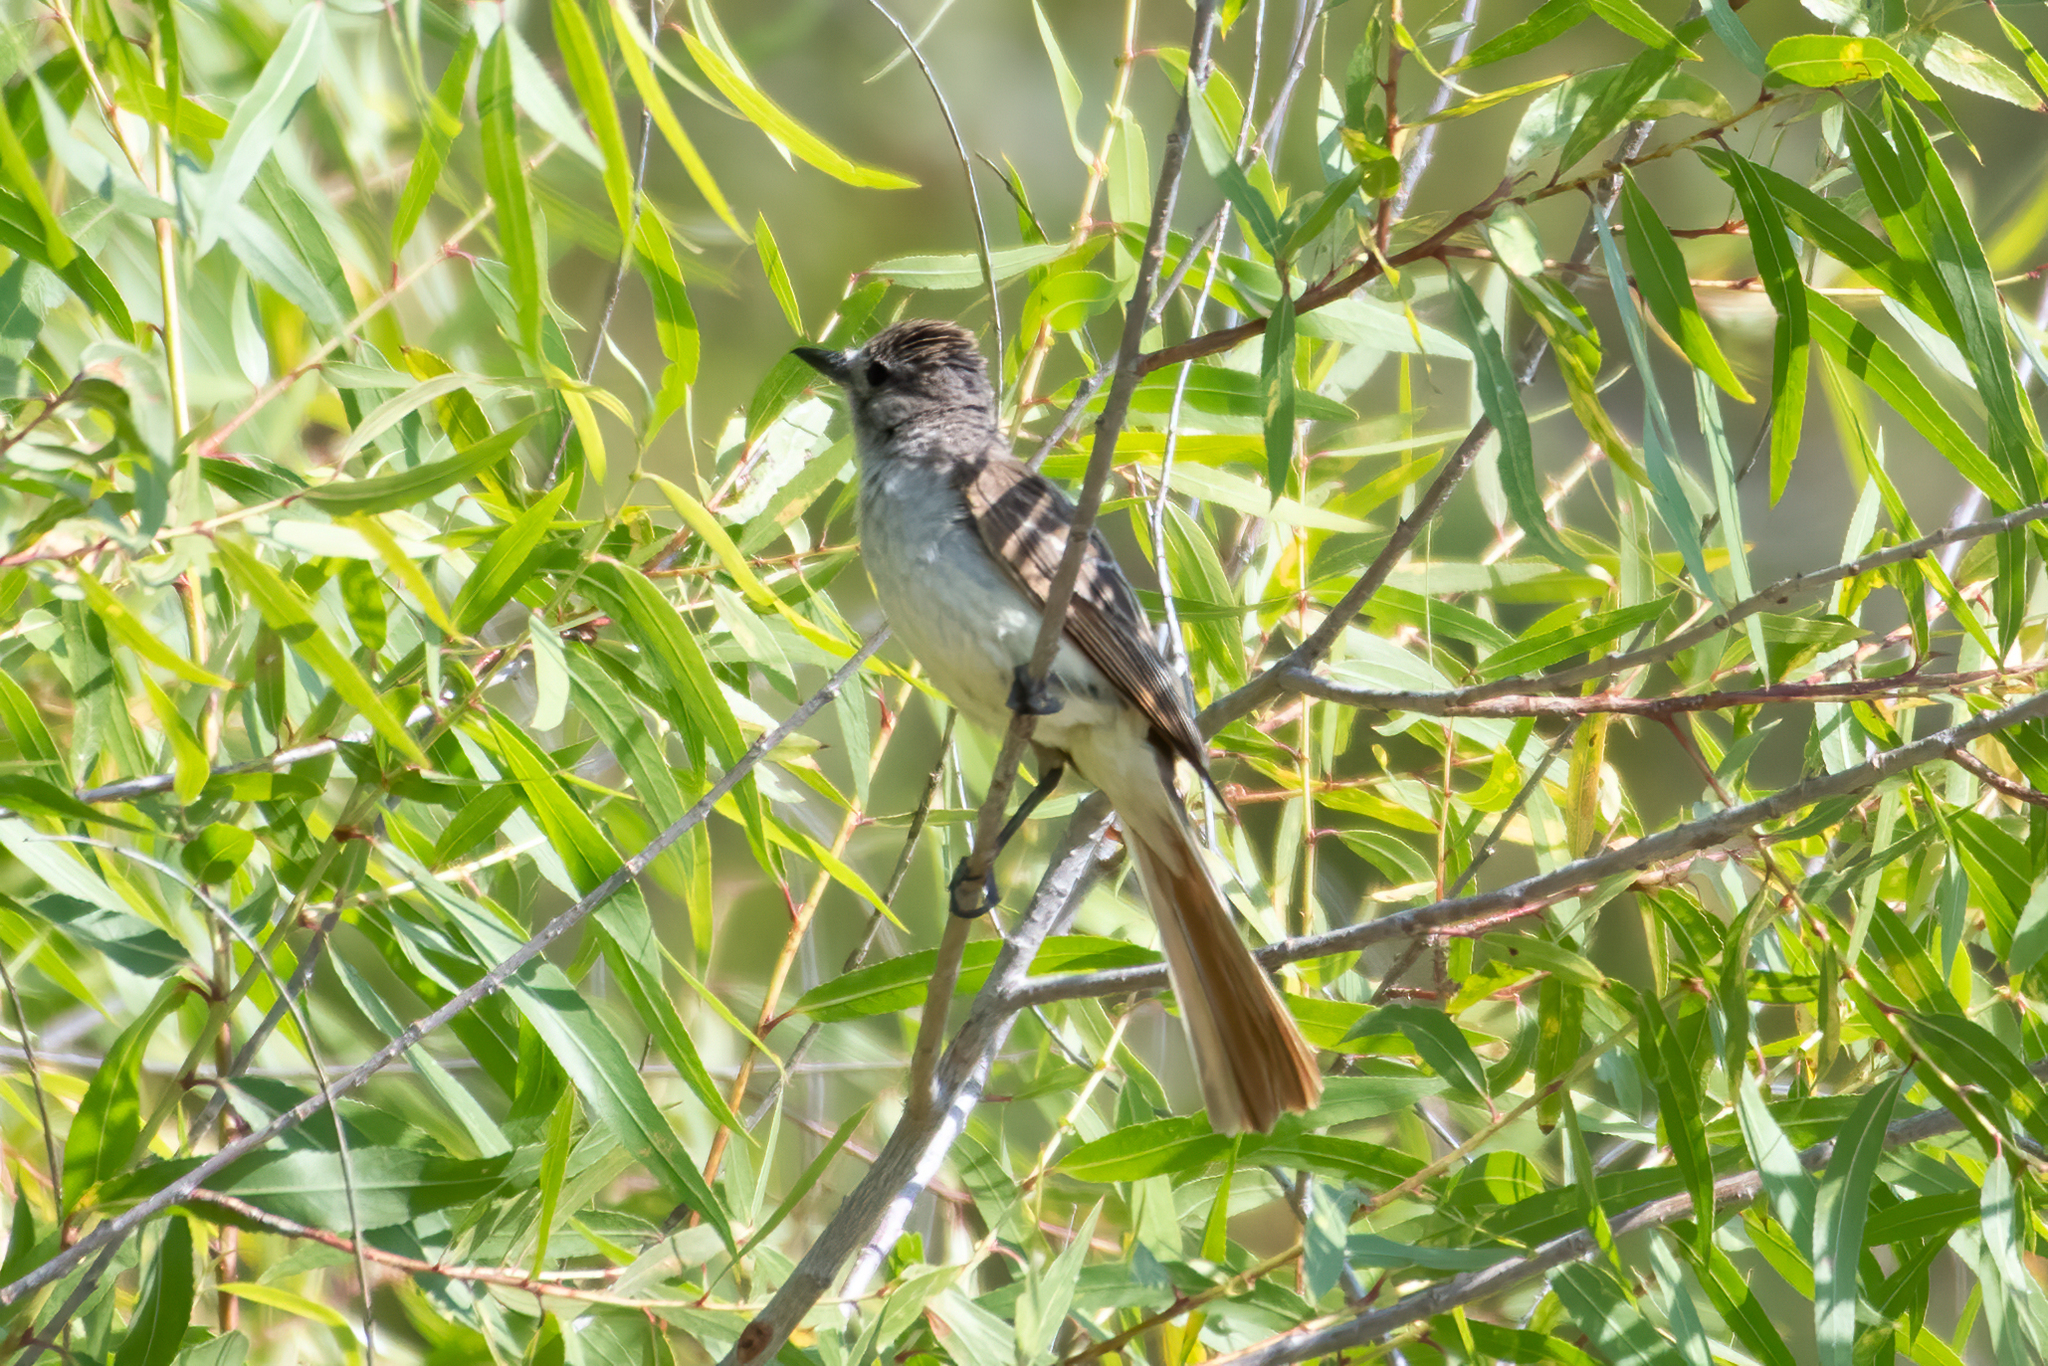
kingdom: Animalia
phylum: Chordata
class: Aves
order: Passeriformes
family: Tyrannidae
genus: Myiarchus
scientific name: Myiarchus cinerascens
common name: Ash-throated flycatcher
